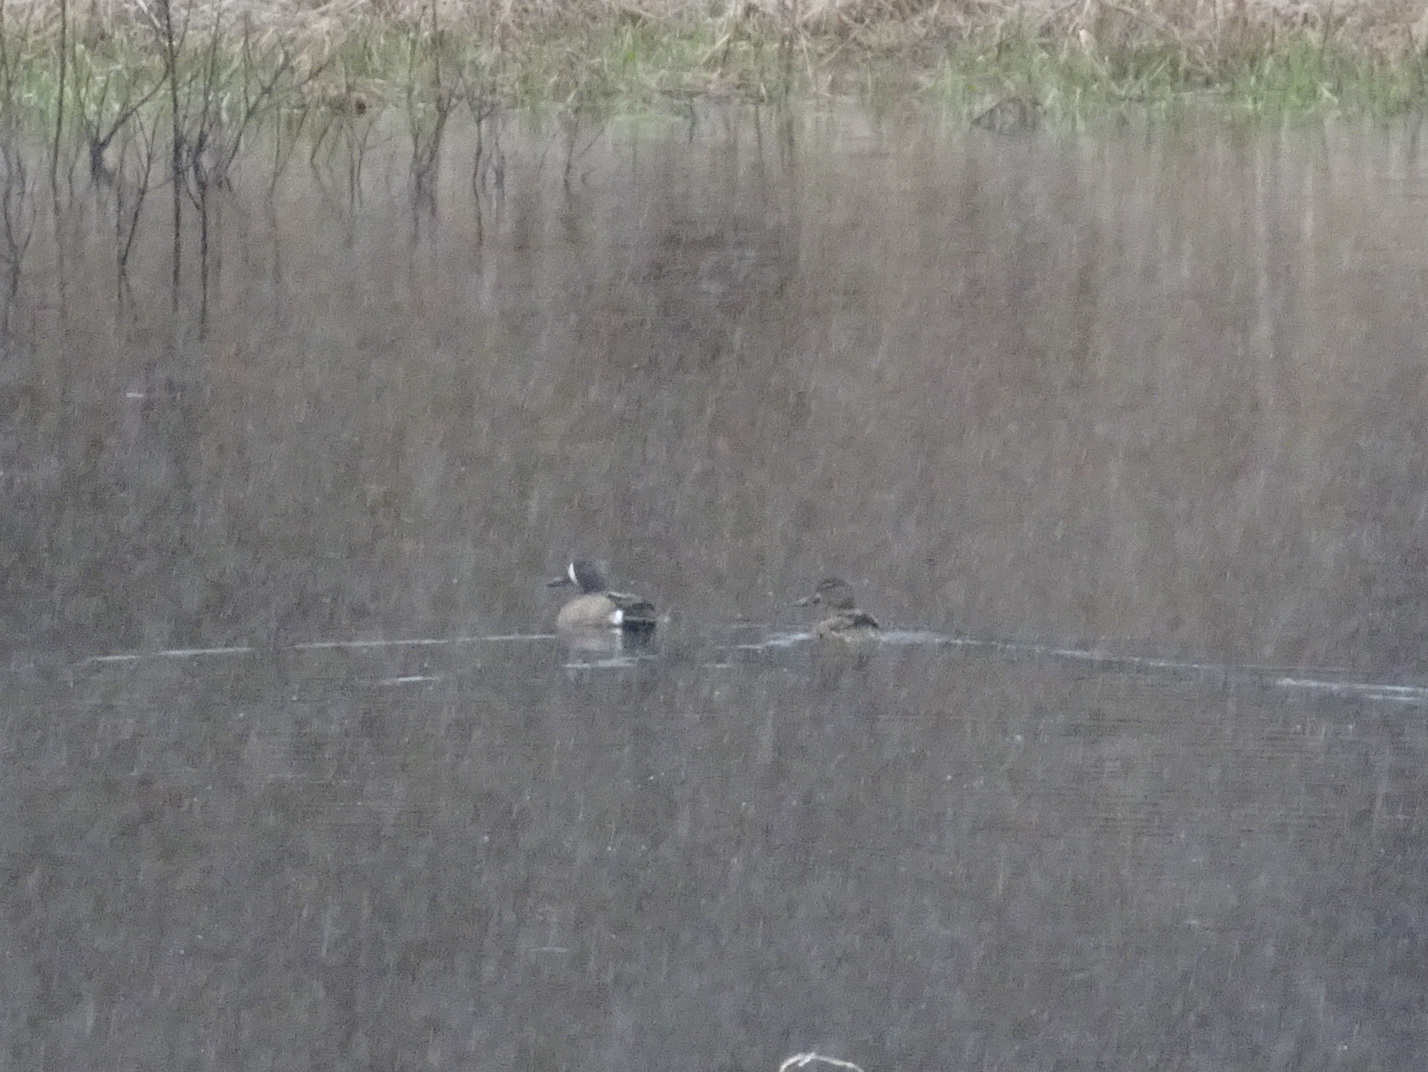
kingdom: Animalia
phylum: Chordata
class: Aves
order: Anseriformes
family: Anatidae
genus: Spatula
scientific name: Spatula discors
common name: Blue-winged teal
